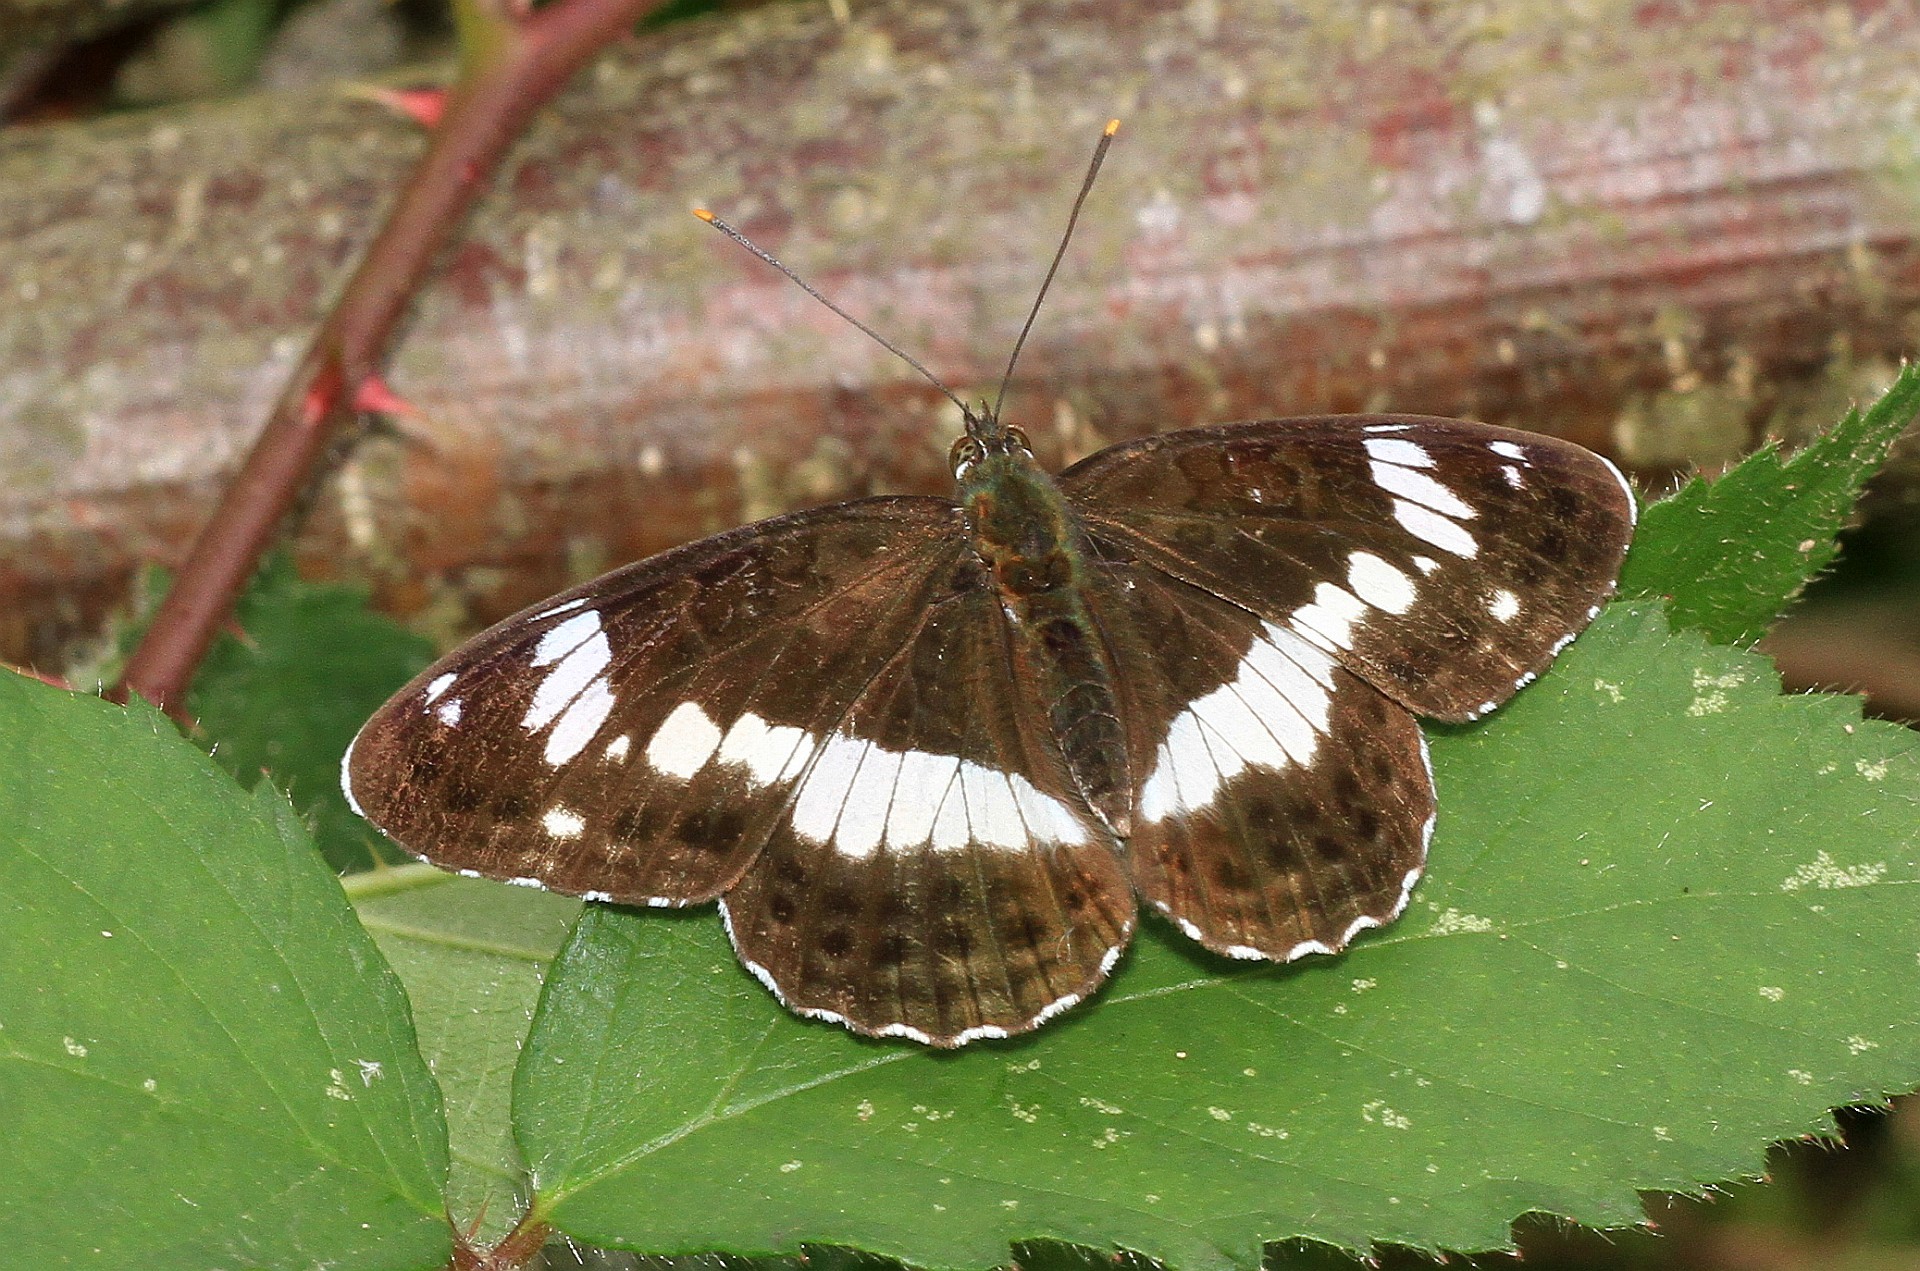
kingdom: Animalia
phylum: Arthropoda
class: Insecta
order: Lepidoptera
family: Nymphalidae
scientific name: Nymphalidae
